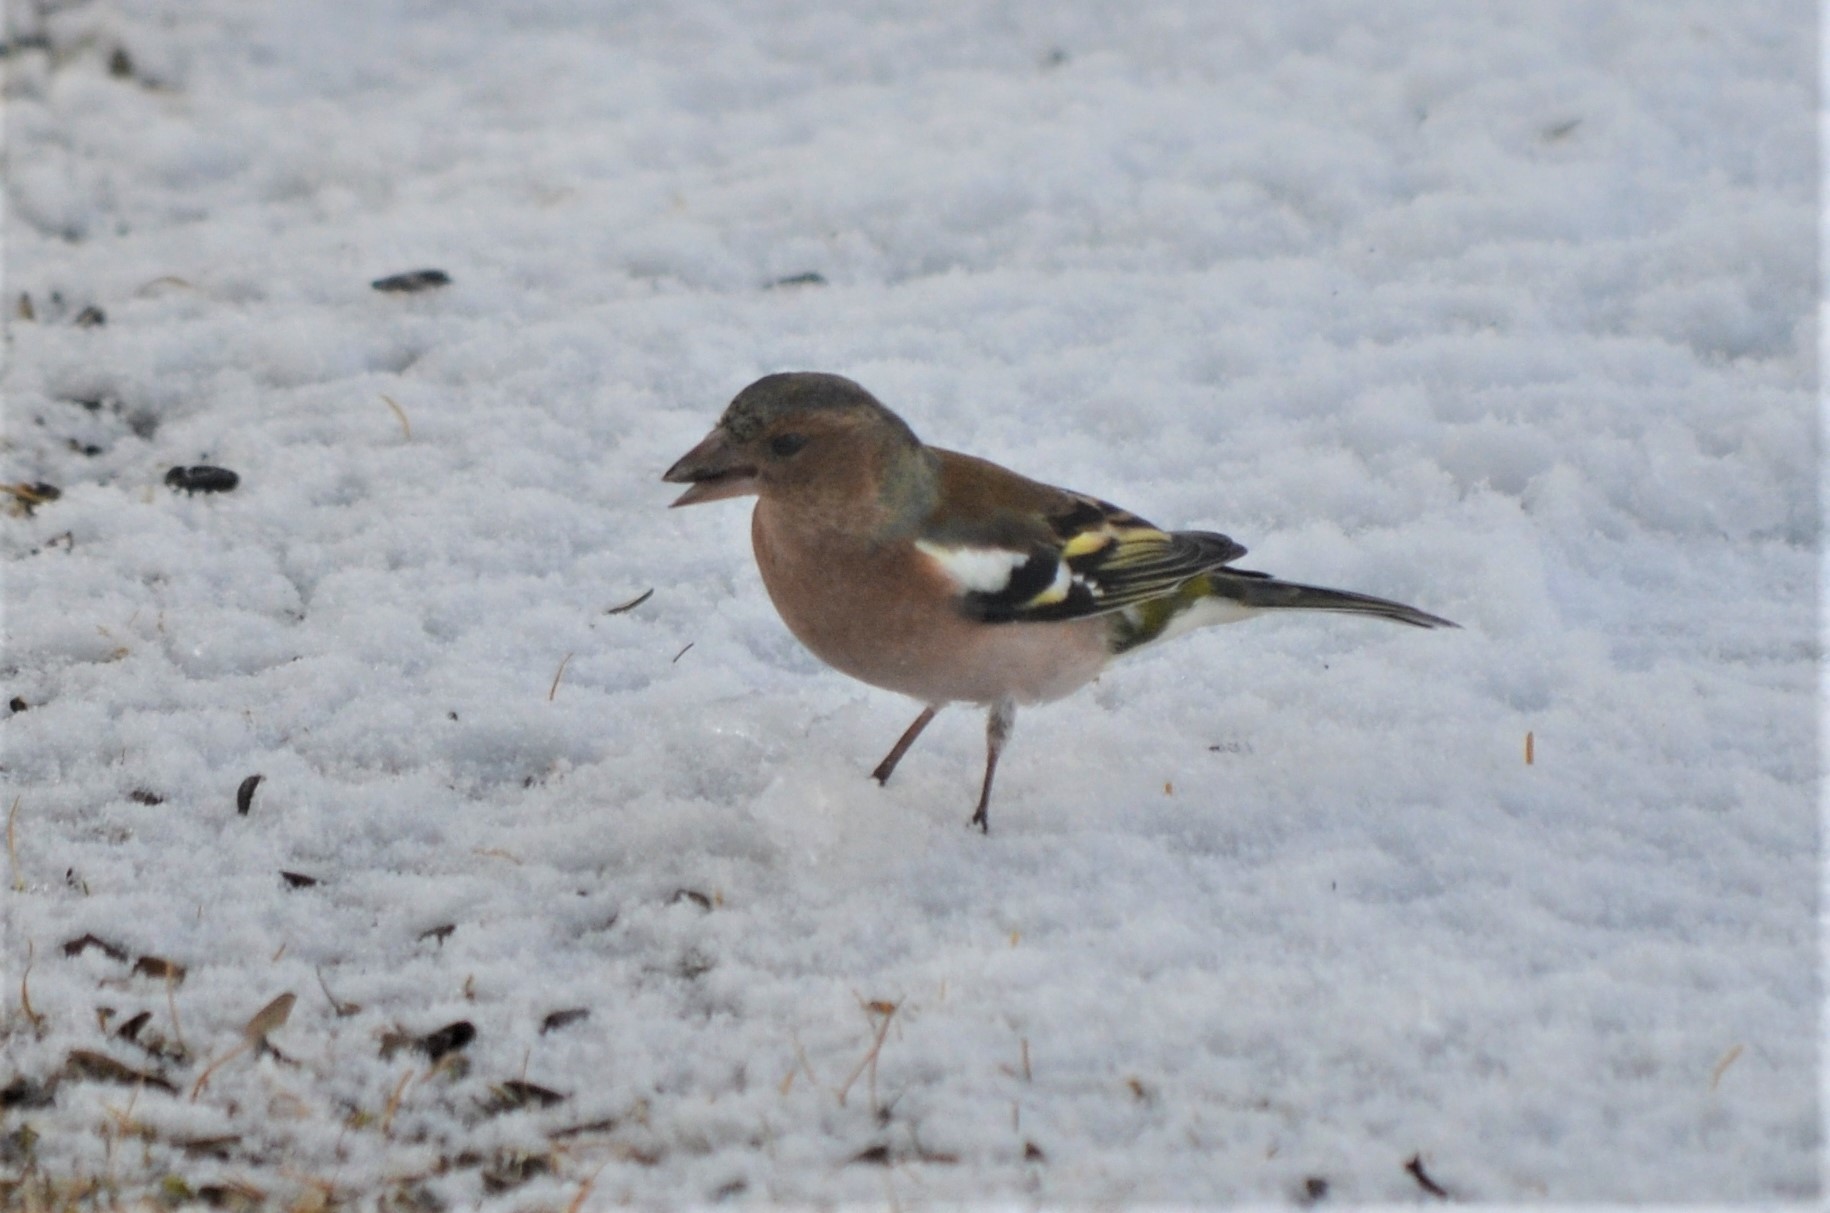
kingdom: Animalia
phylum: Chordata
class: Aves
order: Passeriformes
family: Fringillidae
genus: Fringilla
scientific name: Fringilla coelebs
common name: Common chaffinch
